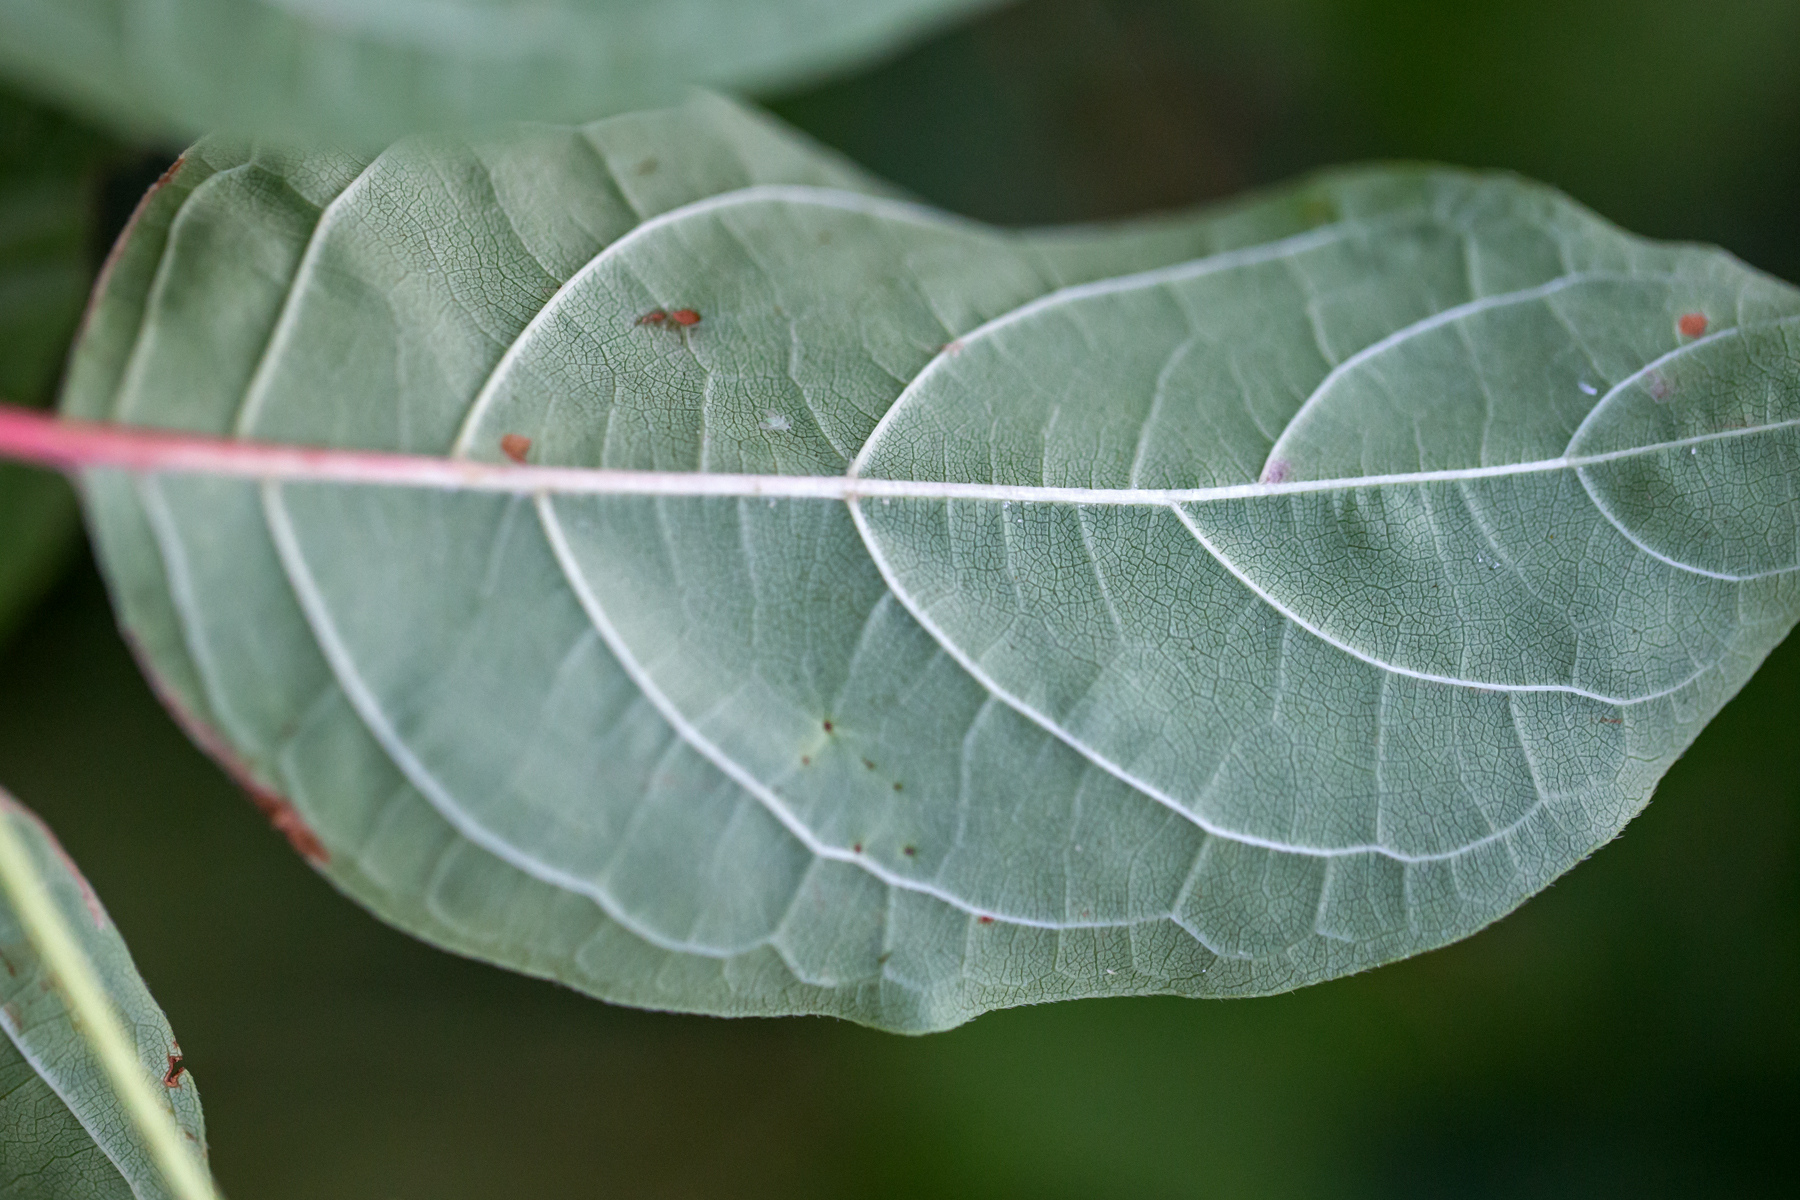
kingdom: Plantae
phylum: Tracheophyta
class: Magnoliopsida
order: Gentianales
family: Rubiaceae
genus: Cephalanthus
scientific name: Cephalanthus occidentalis
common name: Button-willow
